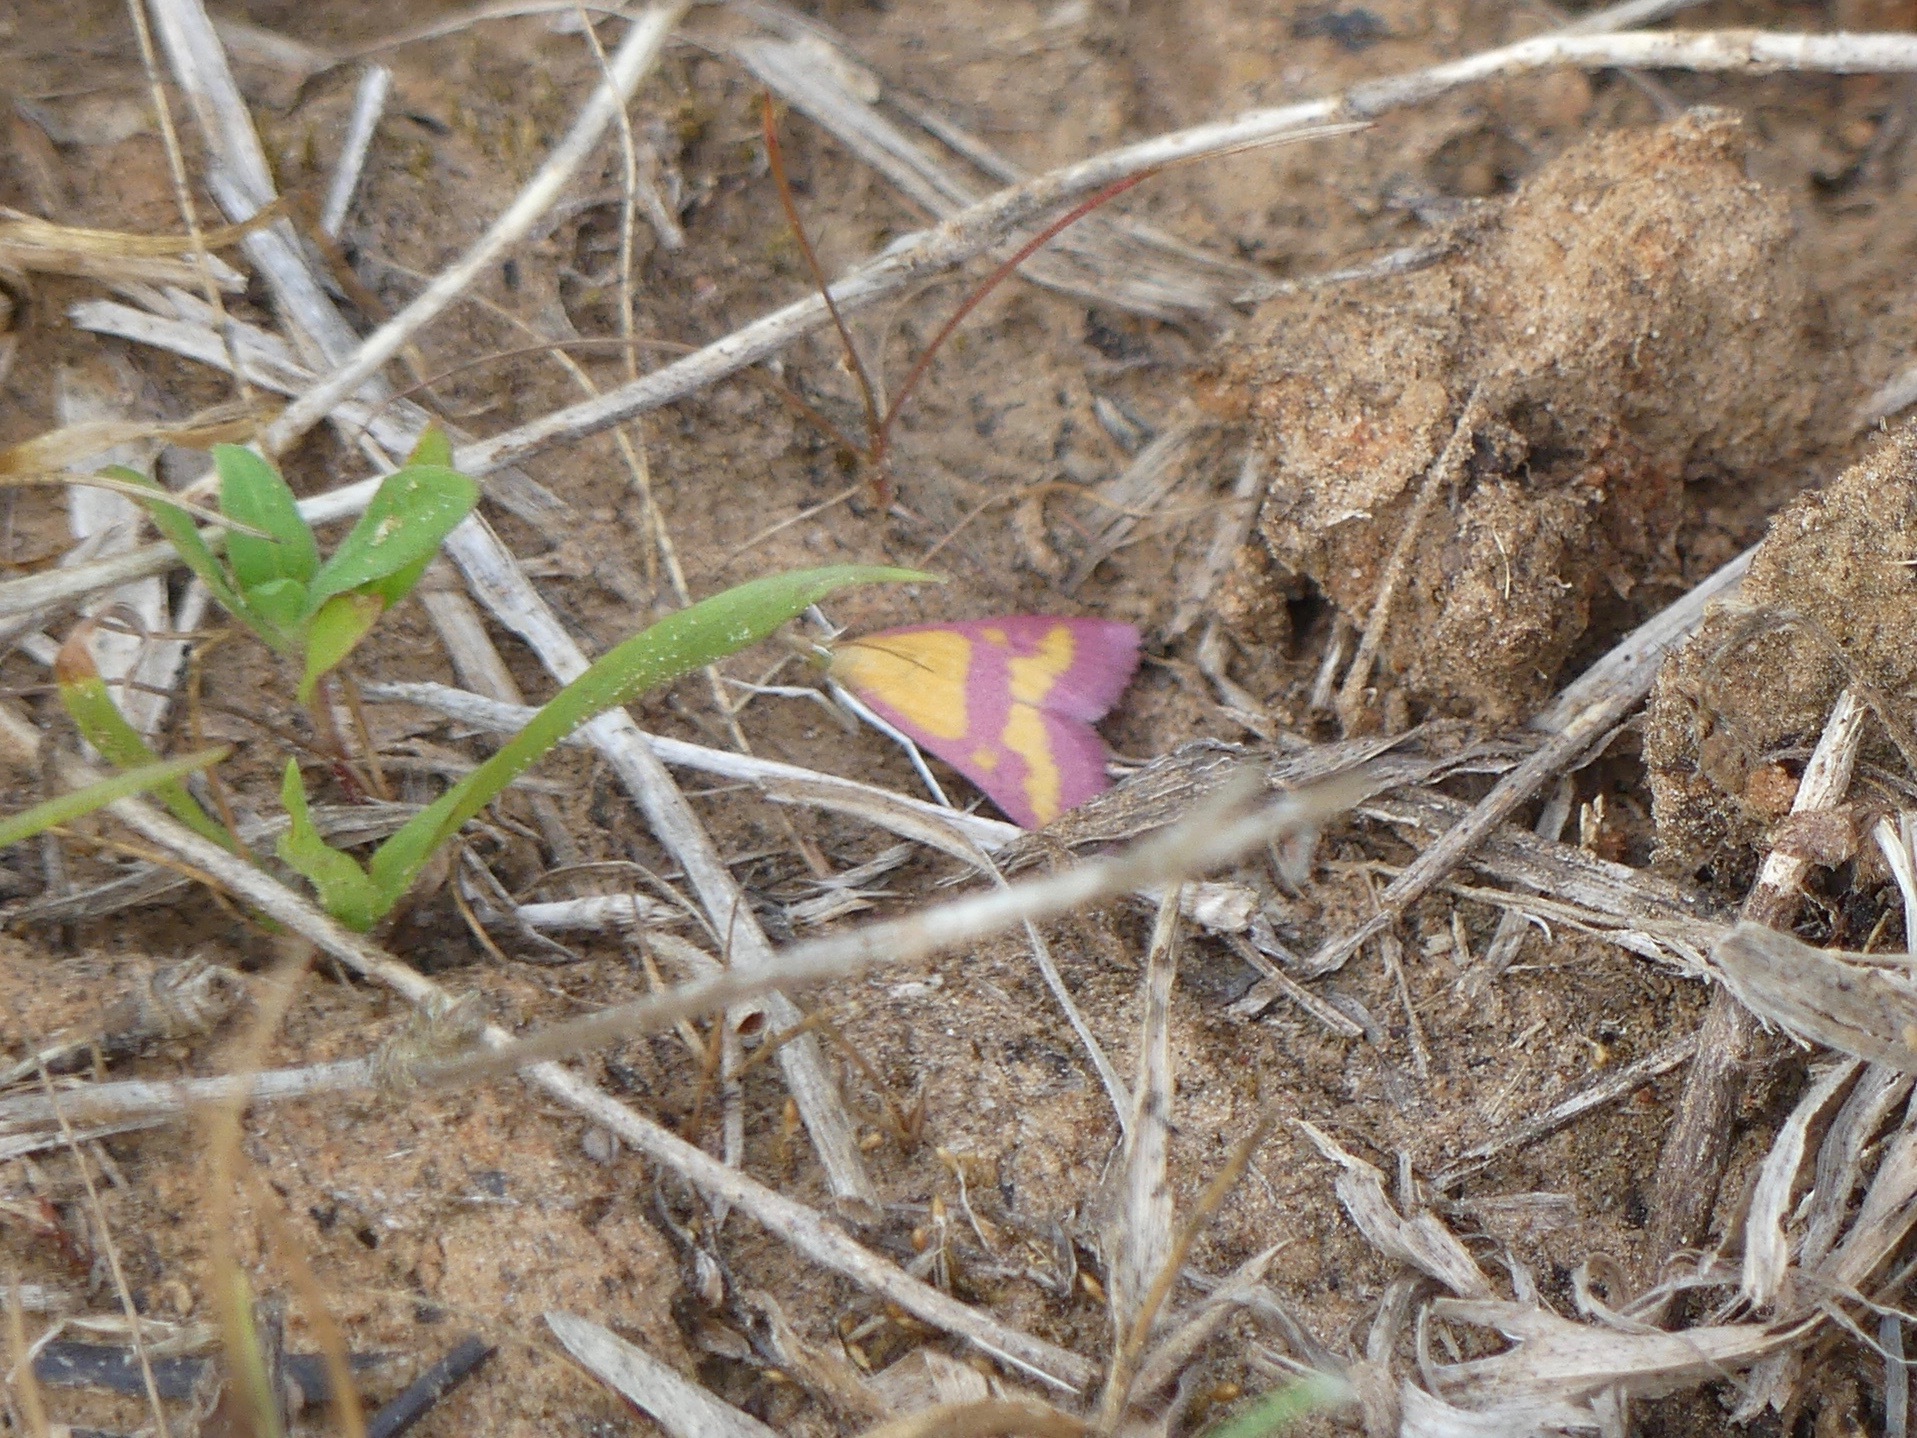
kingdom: Animalia
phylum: Arthropoda
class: Insecta
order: Lepidoptera
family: Crambidae
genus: Pyrausta
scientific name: Pyrausta laticlavia
